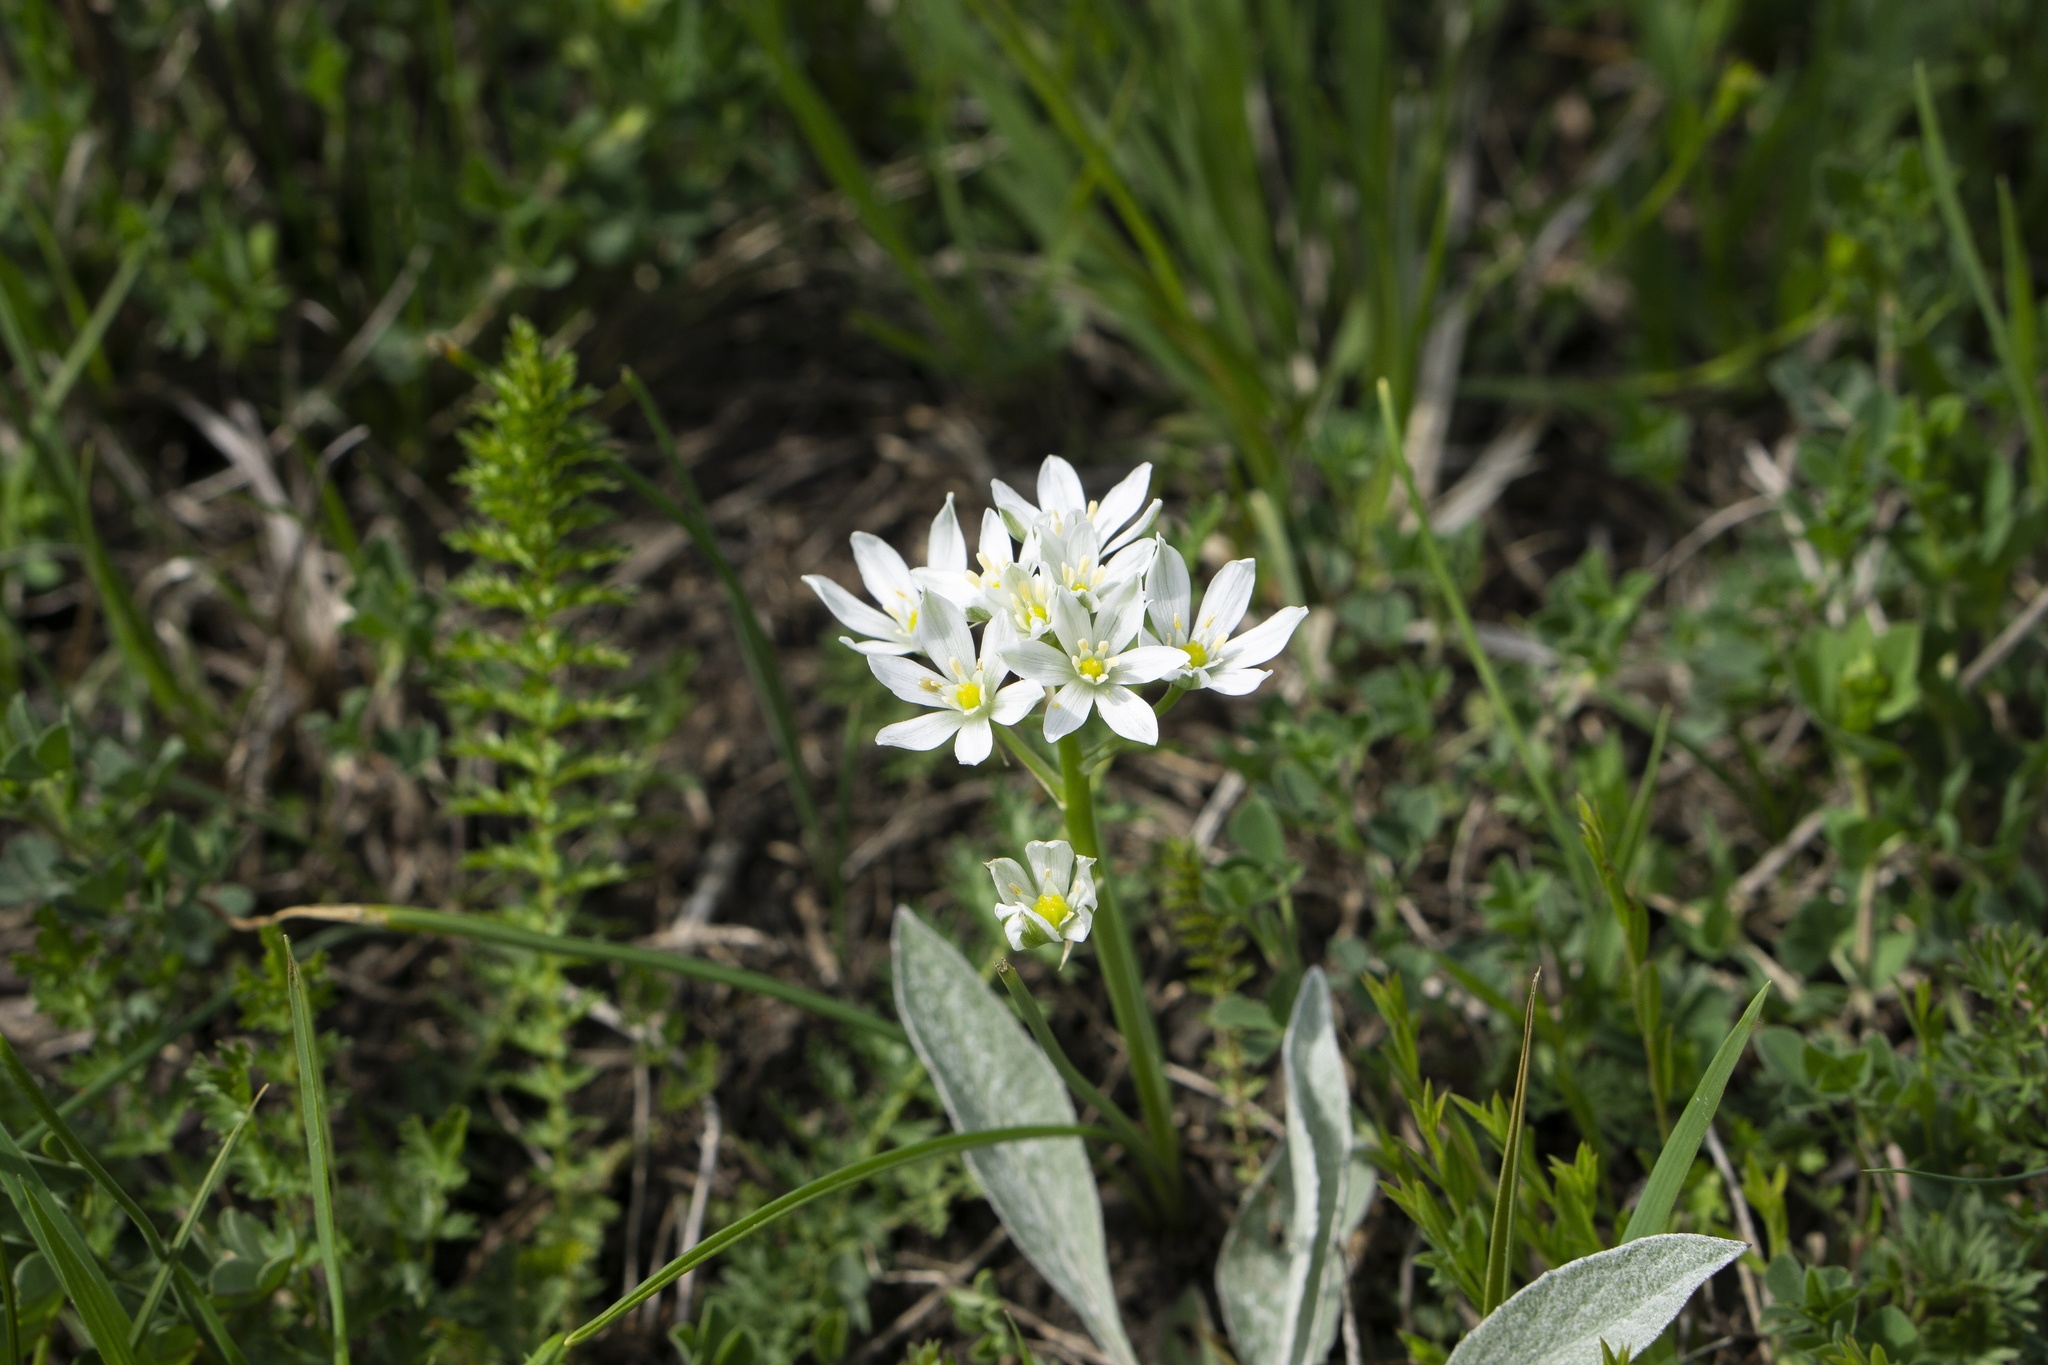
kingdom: Plantae
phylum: Tracheophyta
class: Liliopsida
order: Asparagales
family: Asparagaceae
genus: Ornithogalum
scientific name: Ornithogalum umbellatum
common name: Garden star-of-bethlehem
